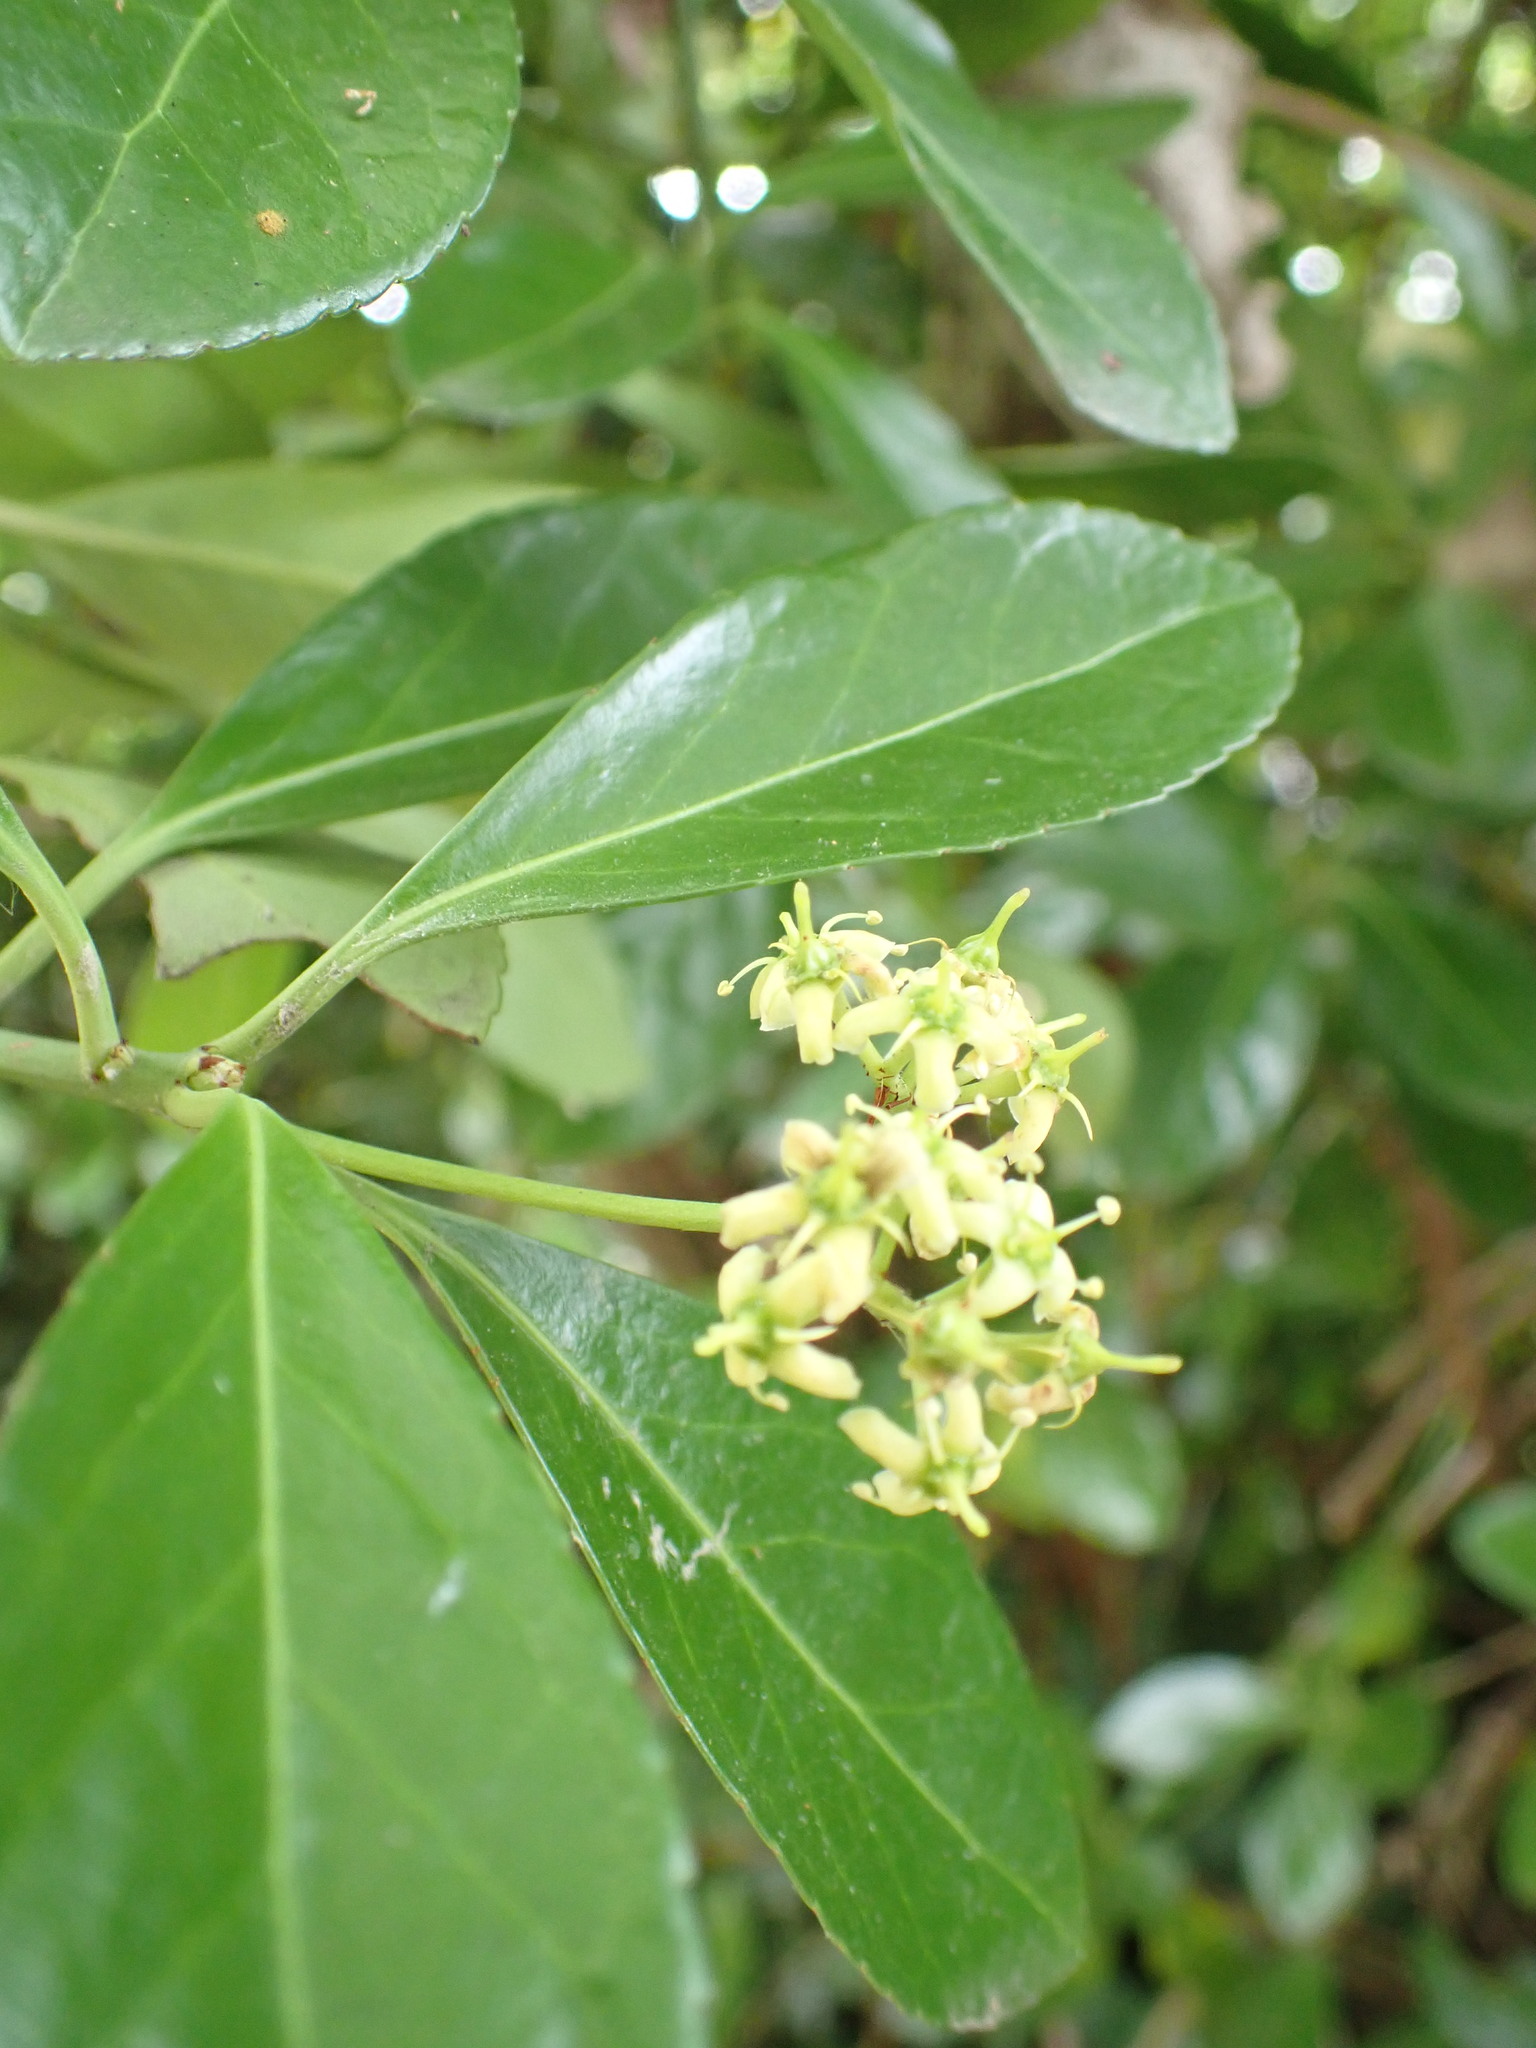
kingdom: Plantae
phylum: Tracheophyta
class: Magnoliopsida
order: Celastrales
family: Celastraceae
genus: Euonymus
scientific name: Euonymus japonicus
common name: Japanese spindletree
